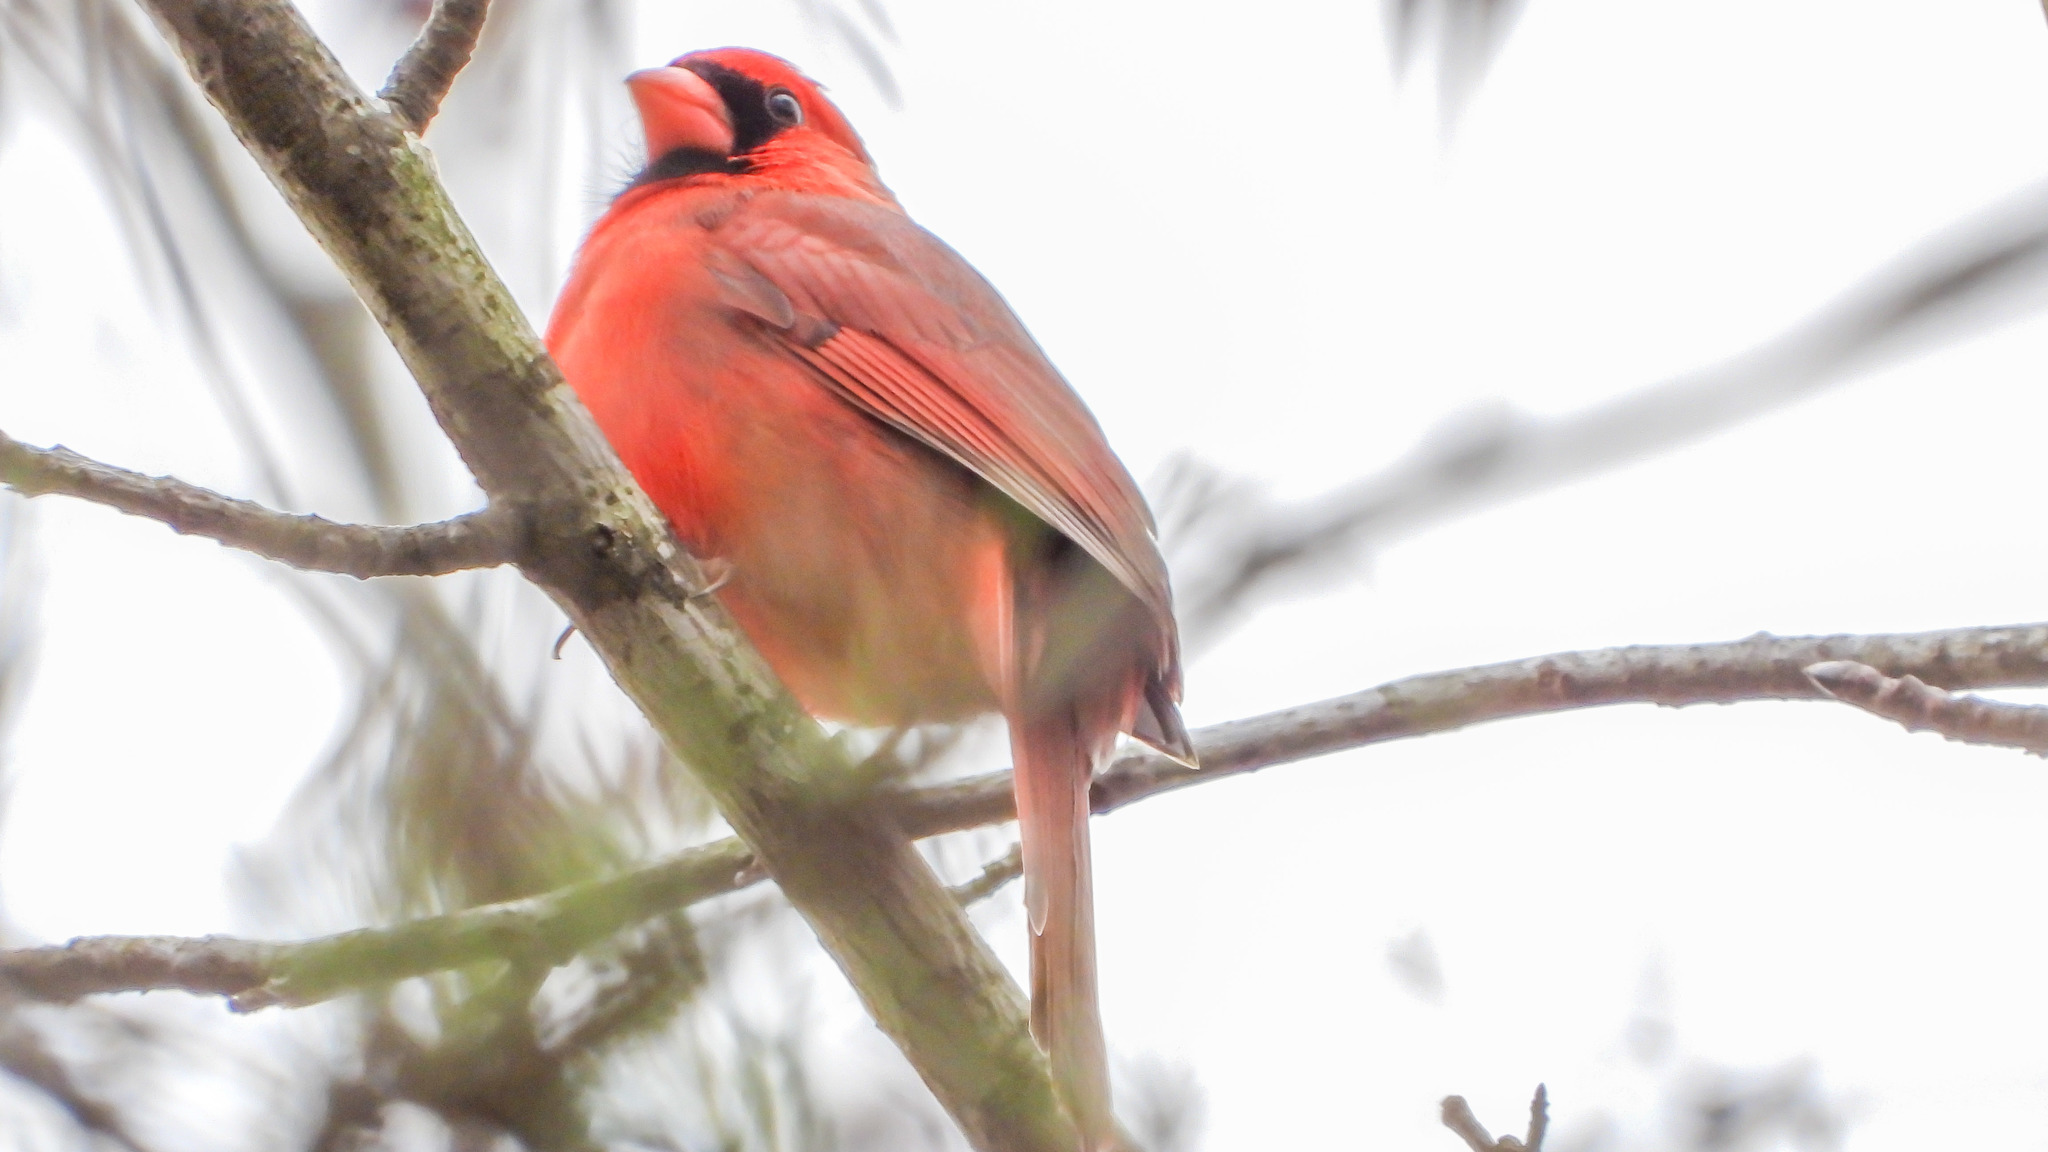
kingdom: Animalia
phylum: Chordata
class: Aves
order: Passeriformes
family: Cardinalidae
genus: Cardinalis
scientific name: Cardinalis cardinalis
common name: Northern cardinal
